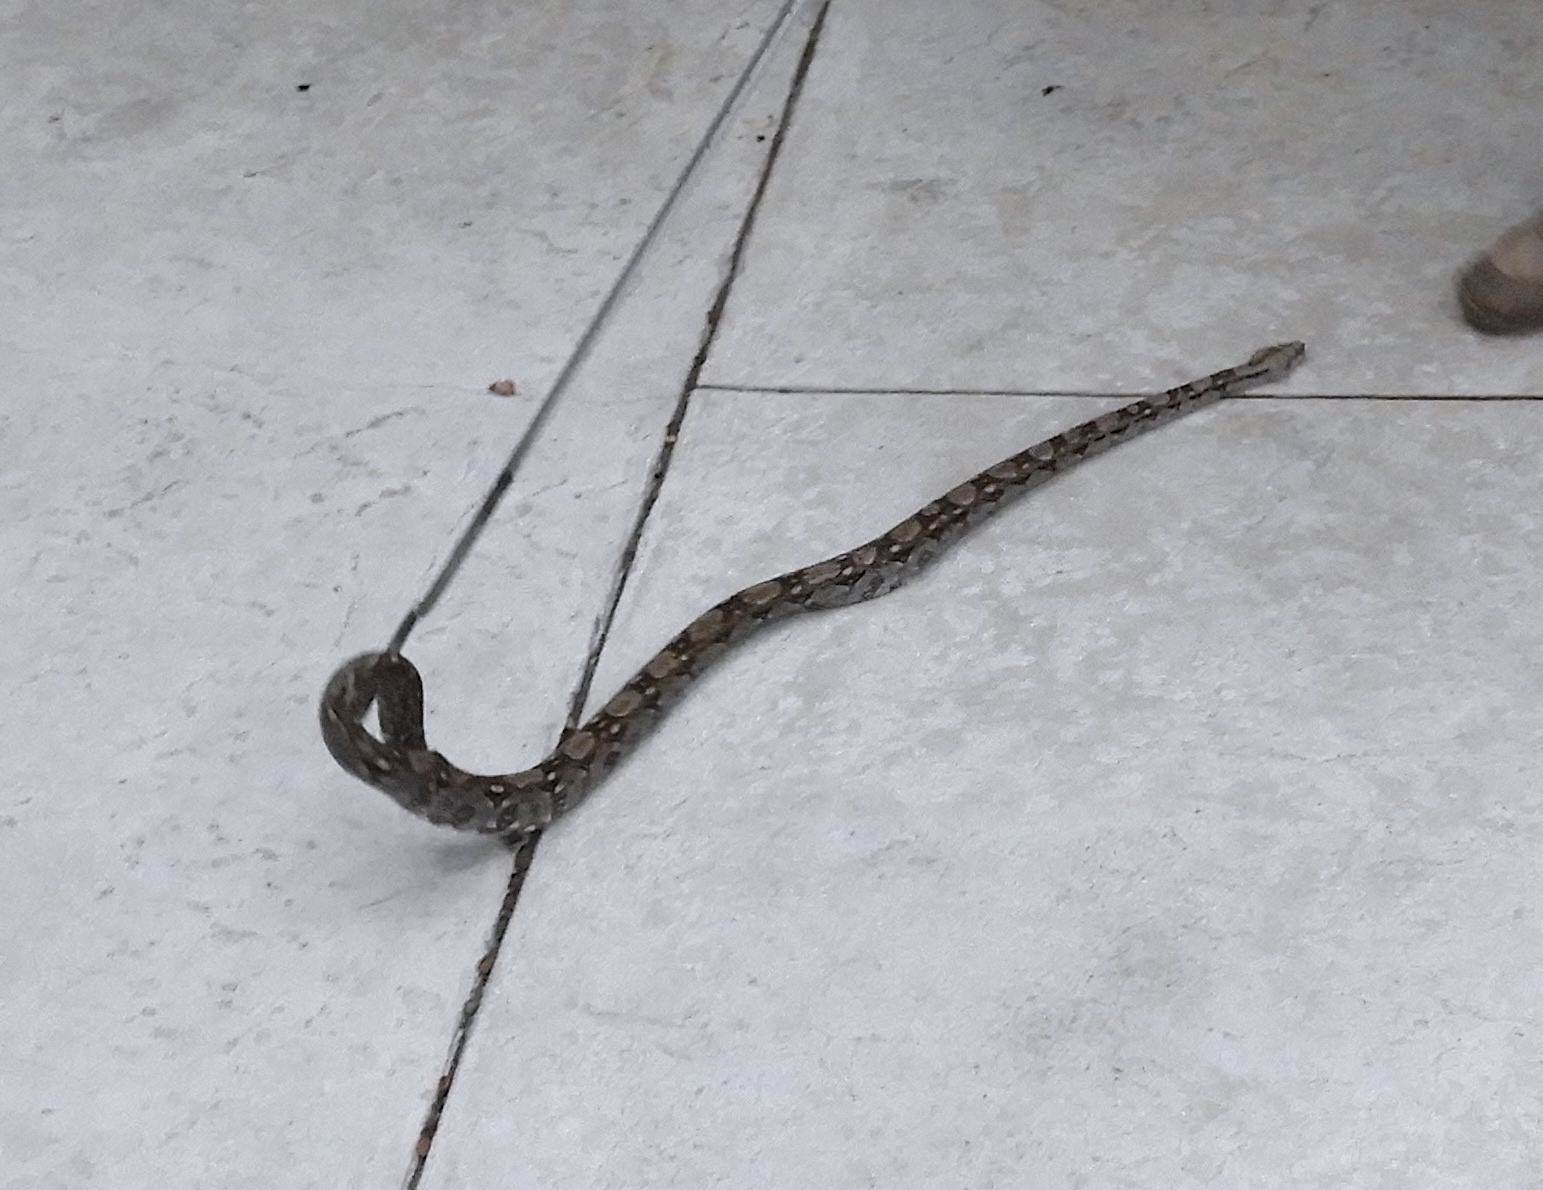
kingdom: Animalia
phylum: Chordata
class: Squamata
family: Boidae
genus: Boa
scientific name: Boa
